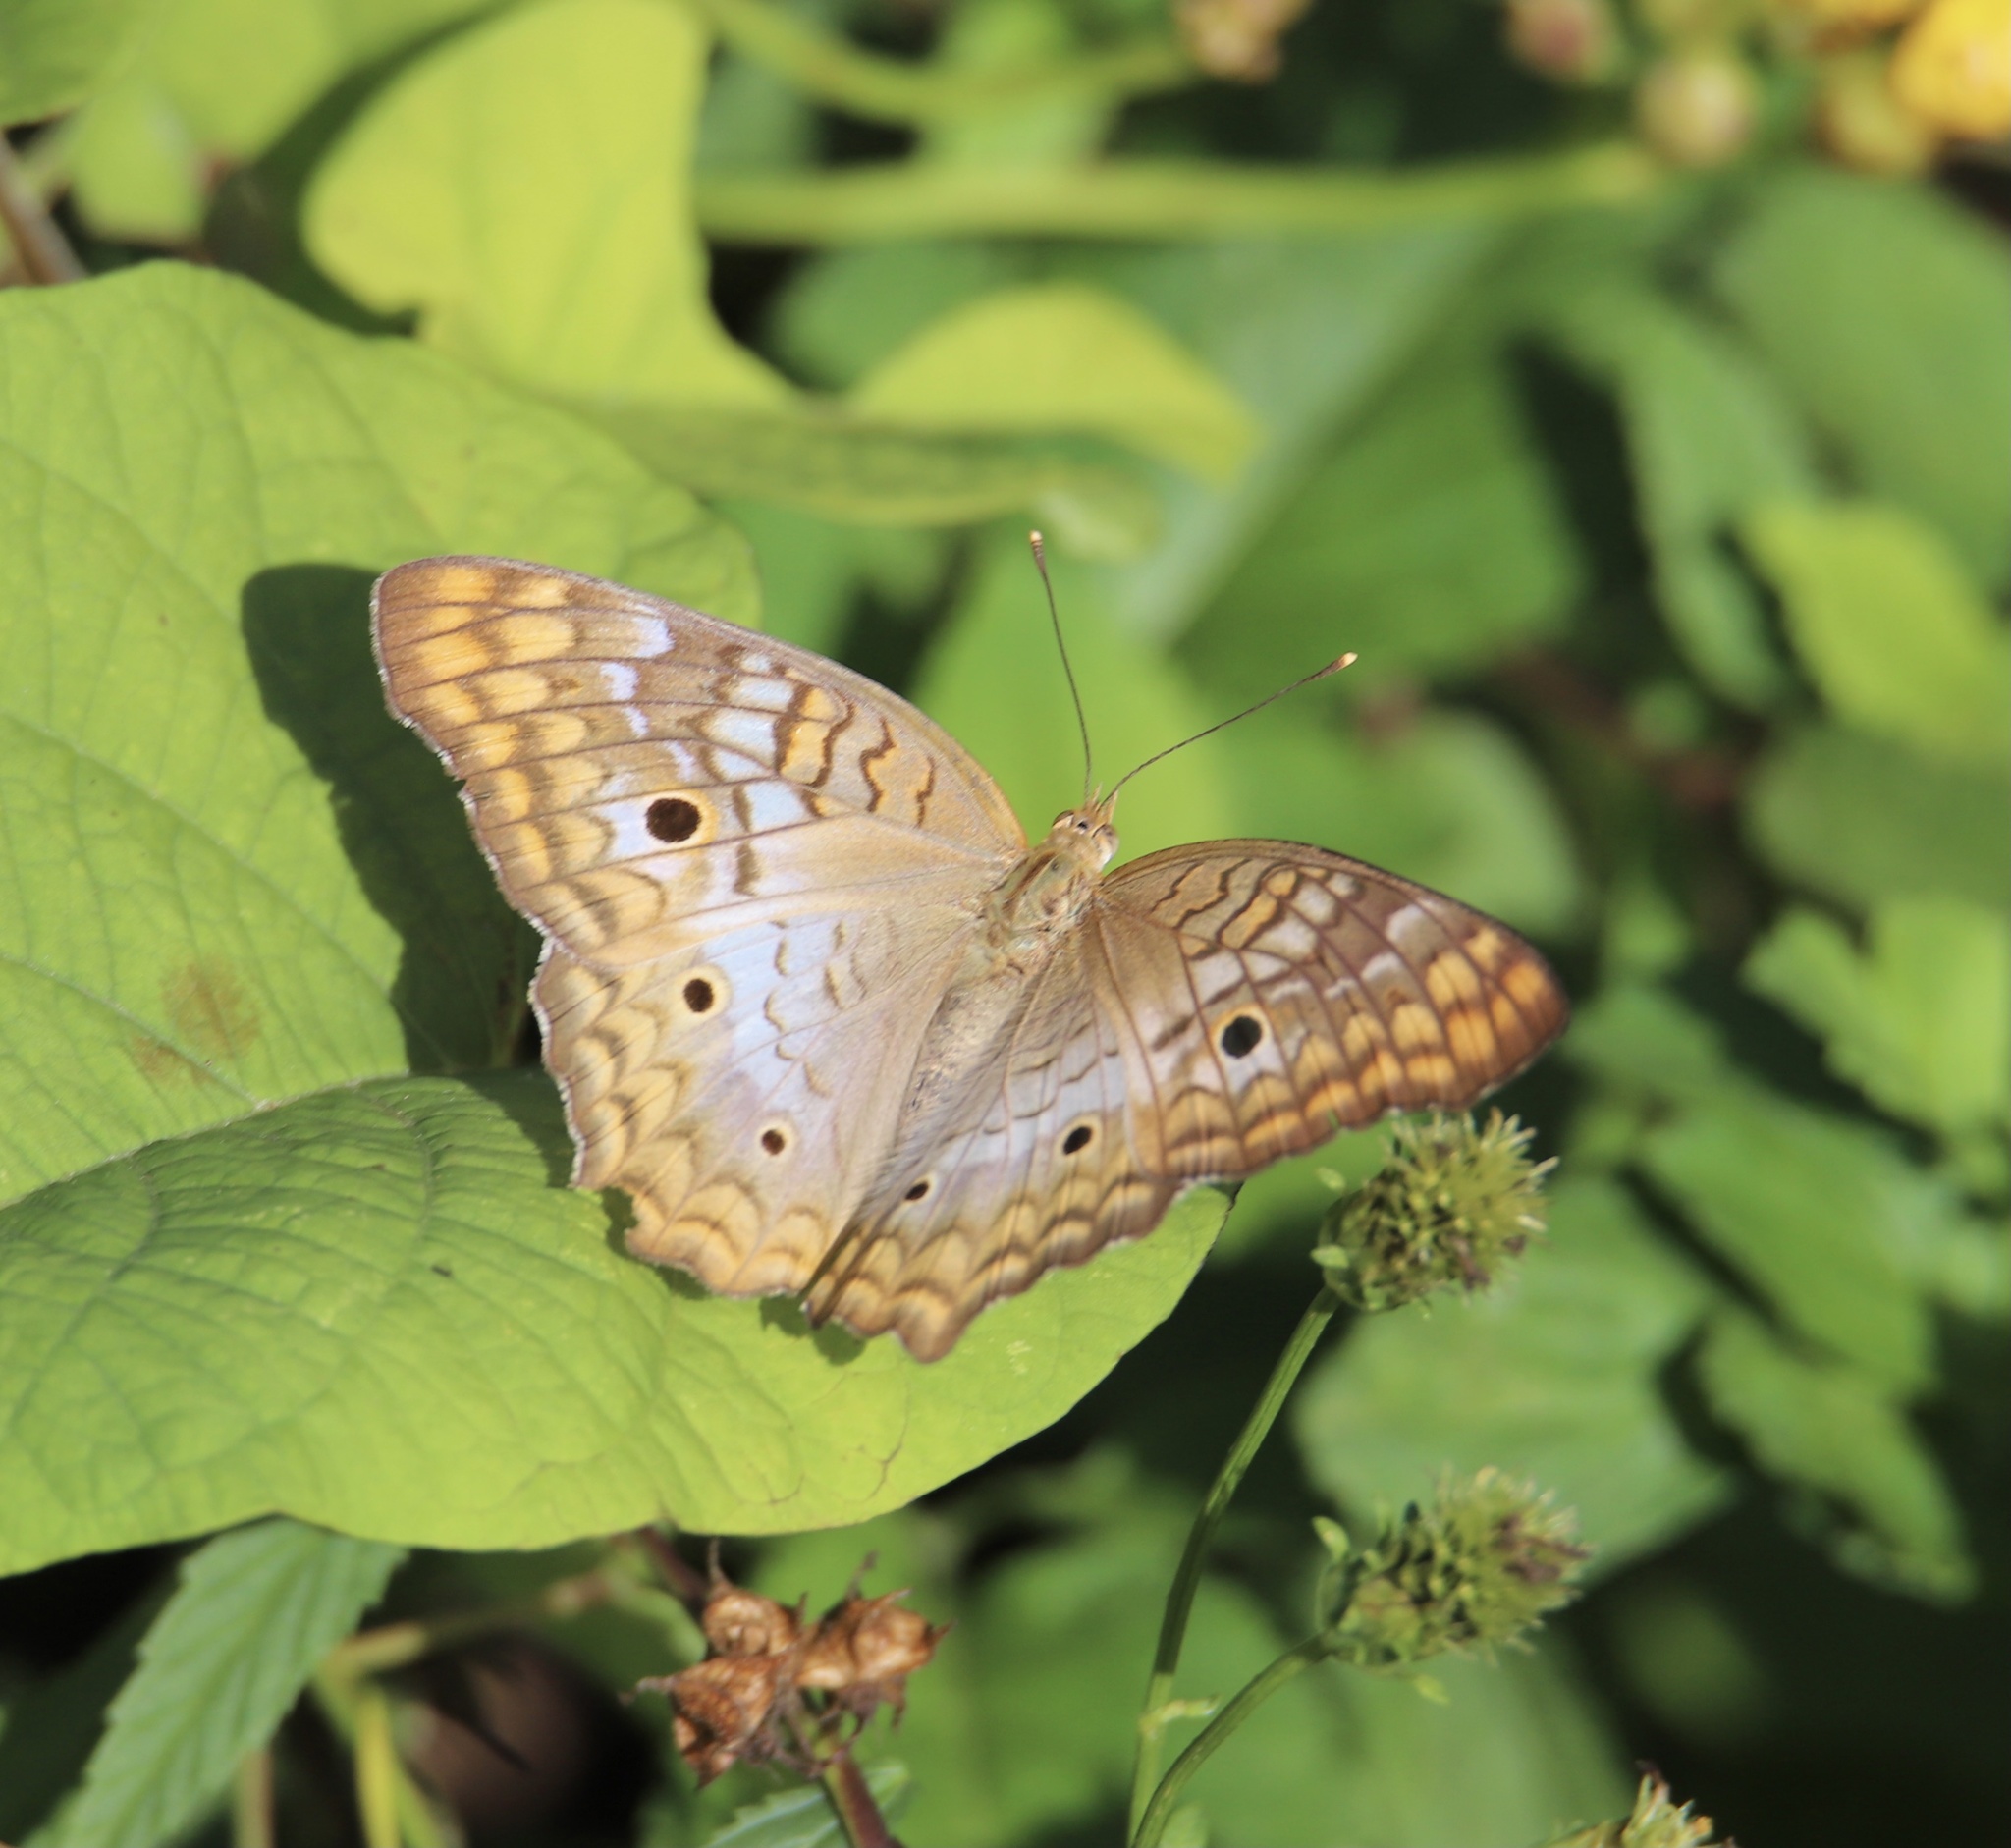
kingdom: Animalia
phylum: Arthropoda
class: Insecta
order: Lepidoptera
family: Nymphalidae
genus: Anartia
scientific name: Anartia jatrophae
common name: White peacock
